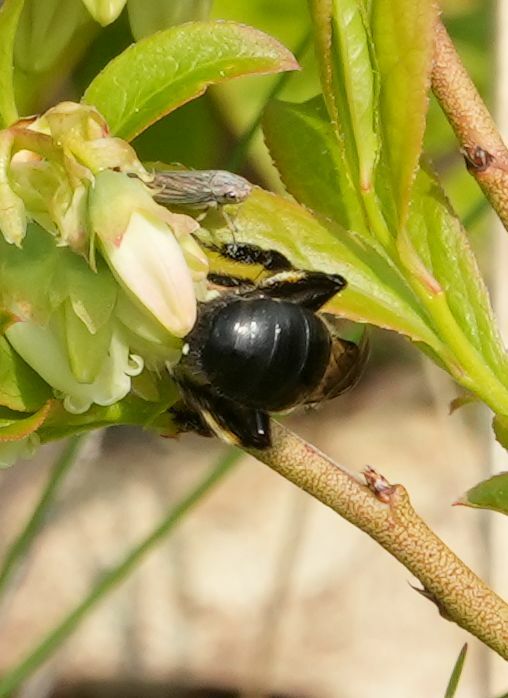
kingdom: Animalia
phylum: Arthropoda
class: Insecta
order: Hymenoptera
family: Andrenidae
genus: Andrena
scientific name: Andrena vicina
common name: Neighborly mining bee
